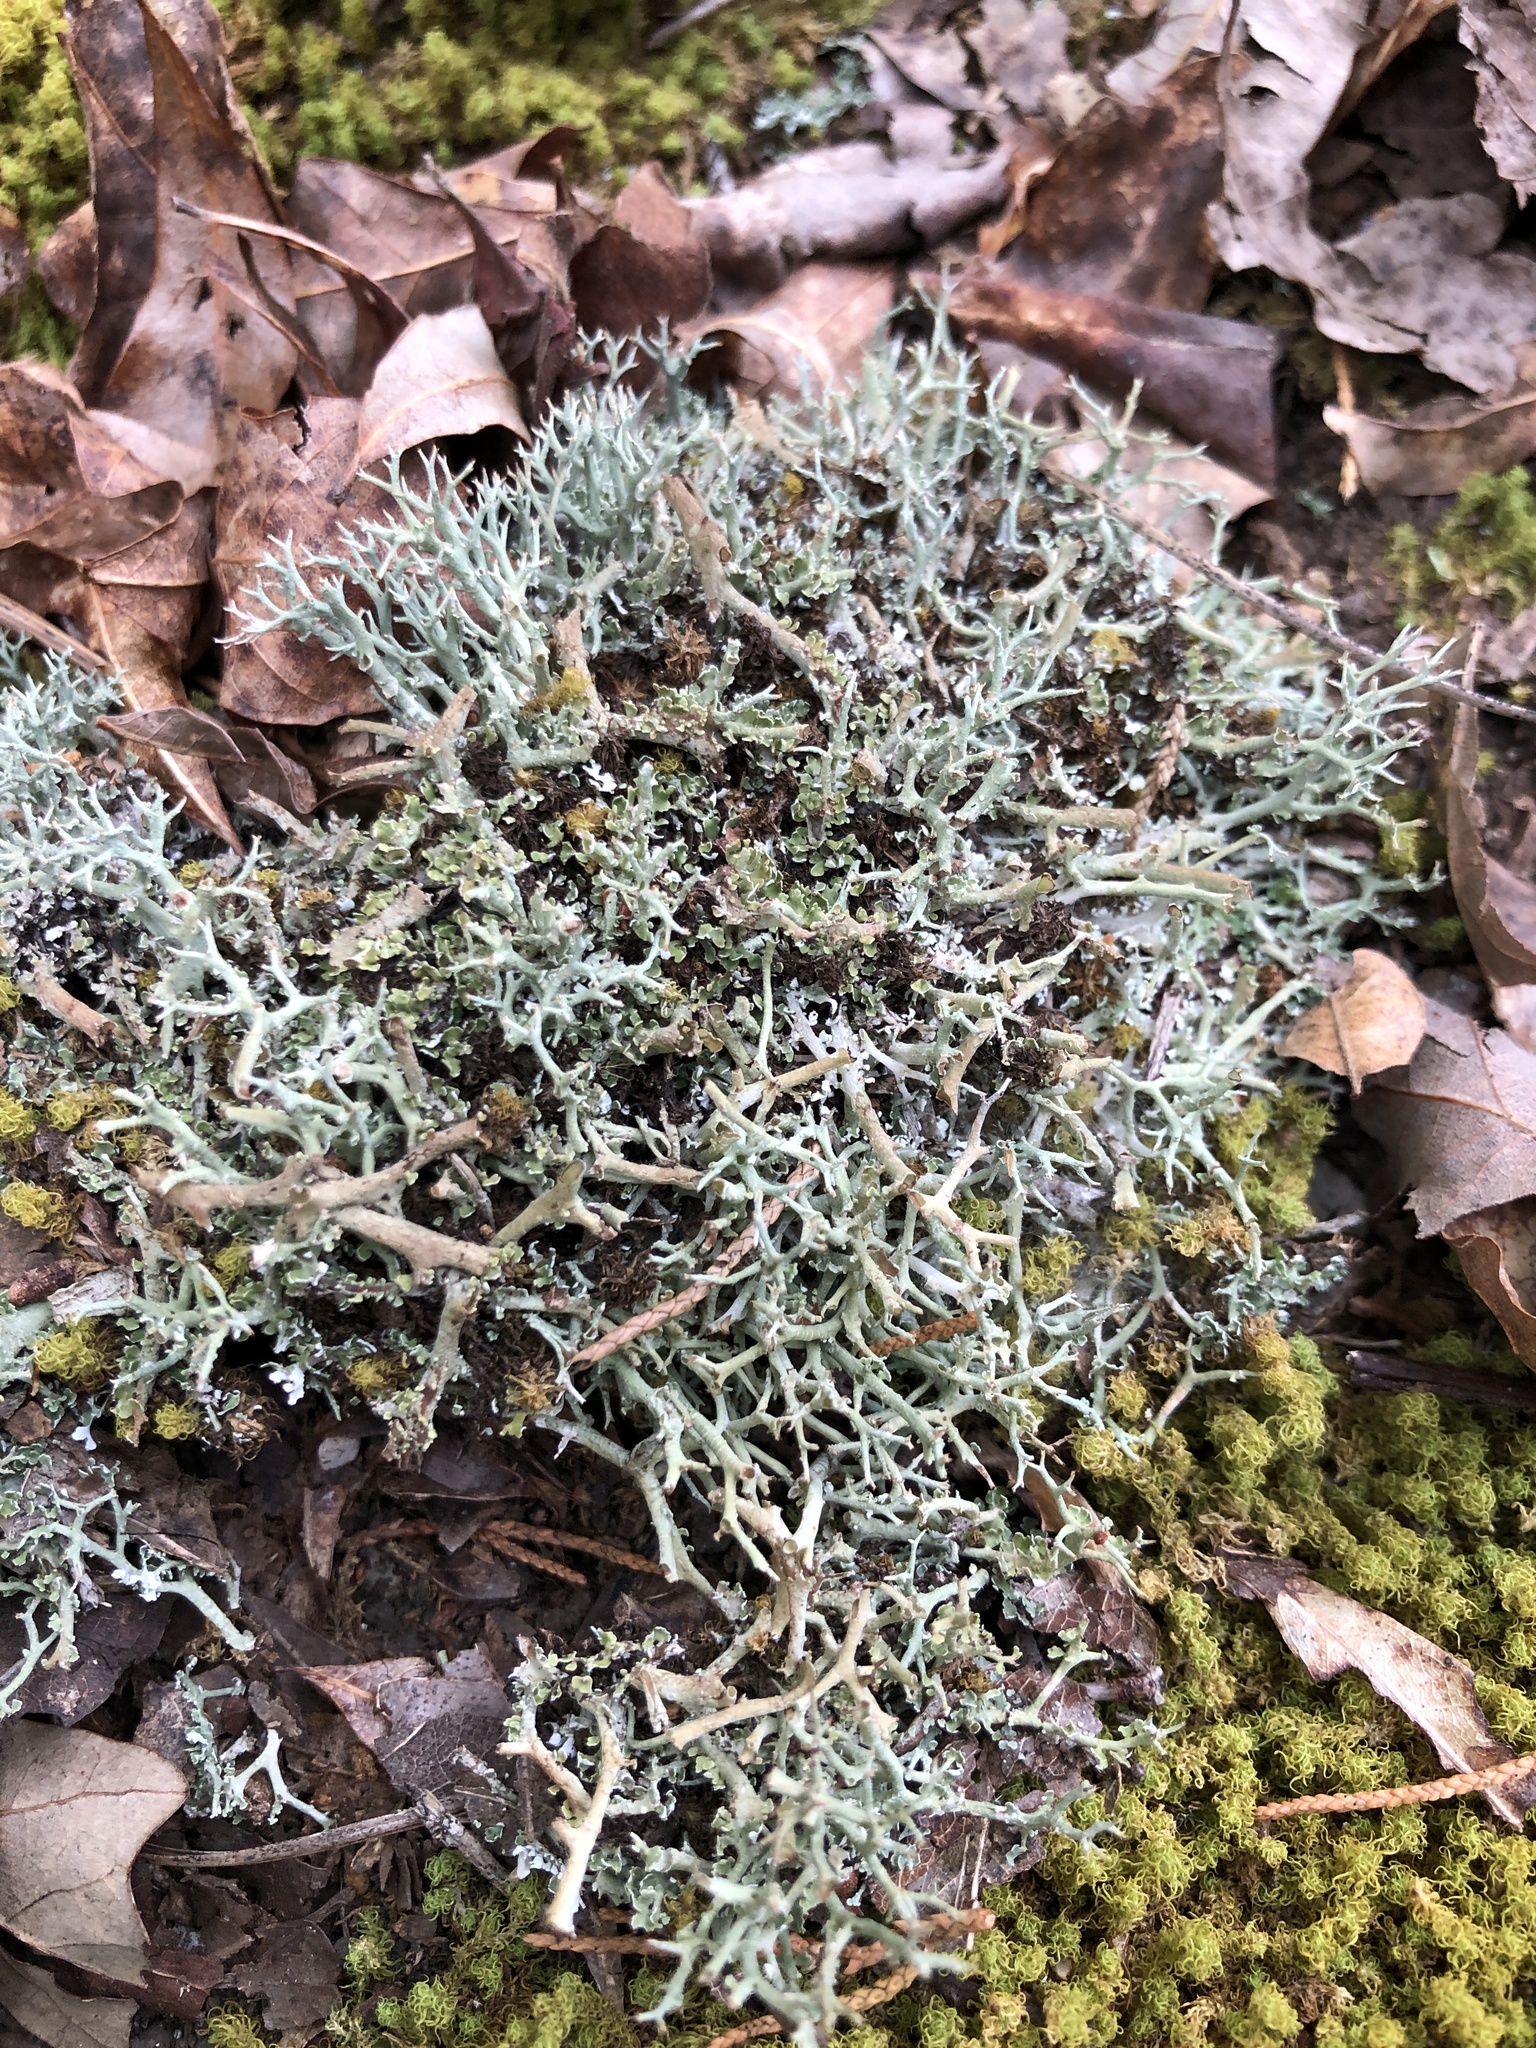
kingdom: Fungi
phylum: Ascomycota
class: Lecanoromycetes
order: Lecanorales
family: Cladoniaceae
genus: Cladonia
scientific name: Cladonia furcata
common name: Many-forked cladonia
